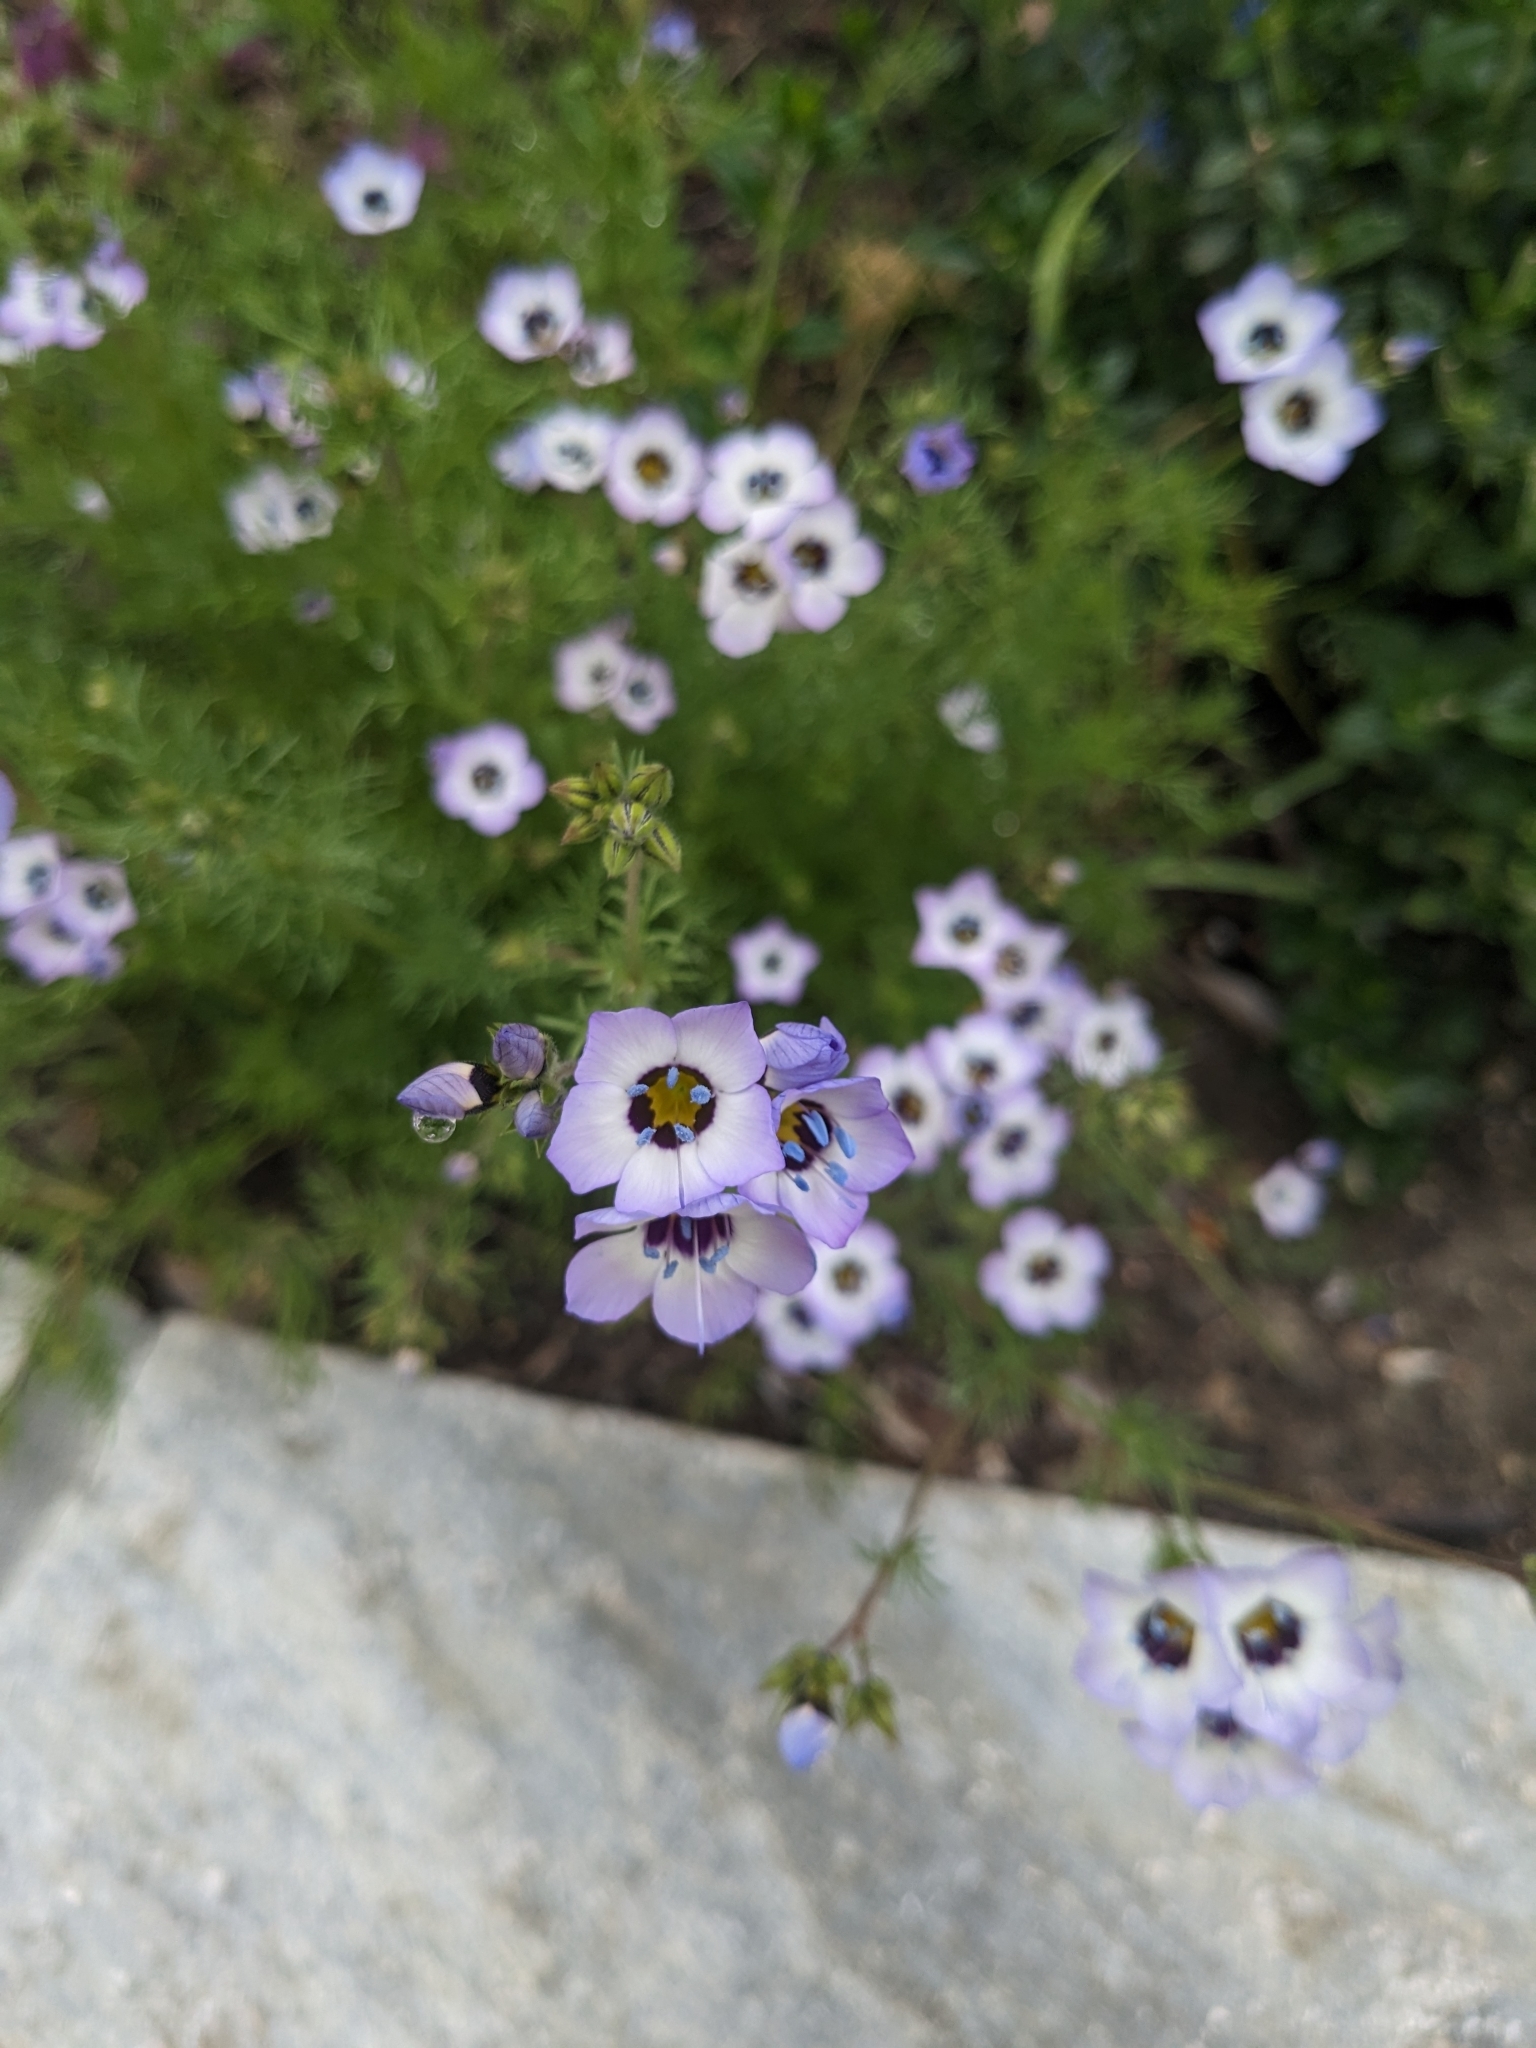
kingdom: Plantae
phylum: Tracheophyta
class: Magnoliopsida
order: Ericales
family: Polemoniaceae
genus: Gilia
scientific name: Gilia tricolor
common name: Bird's-eyes
